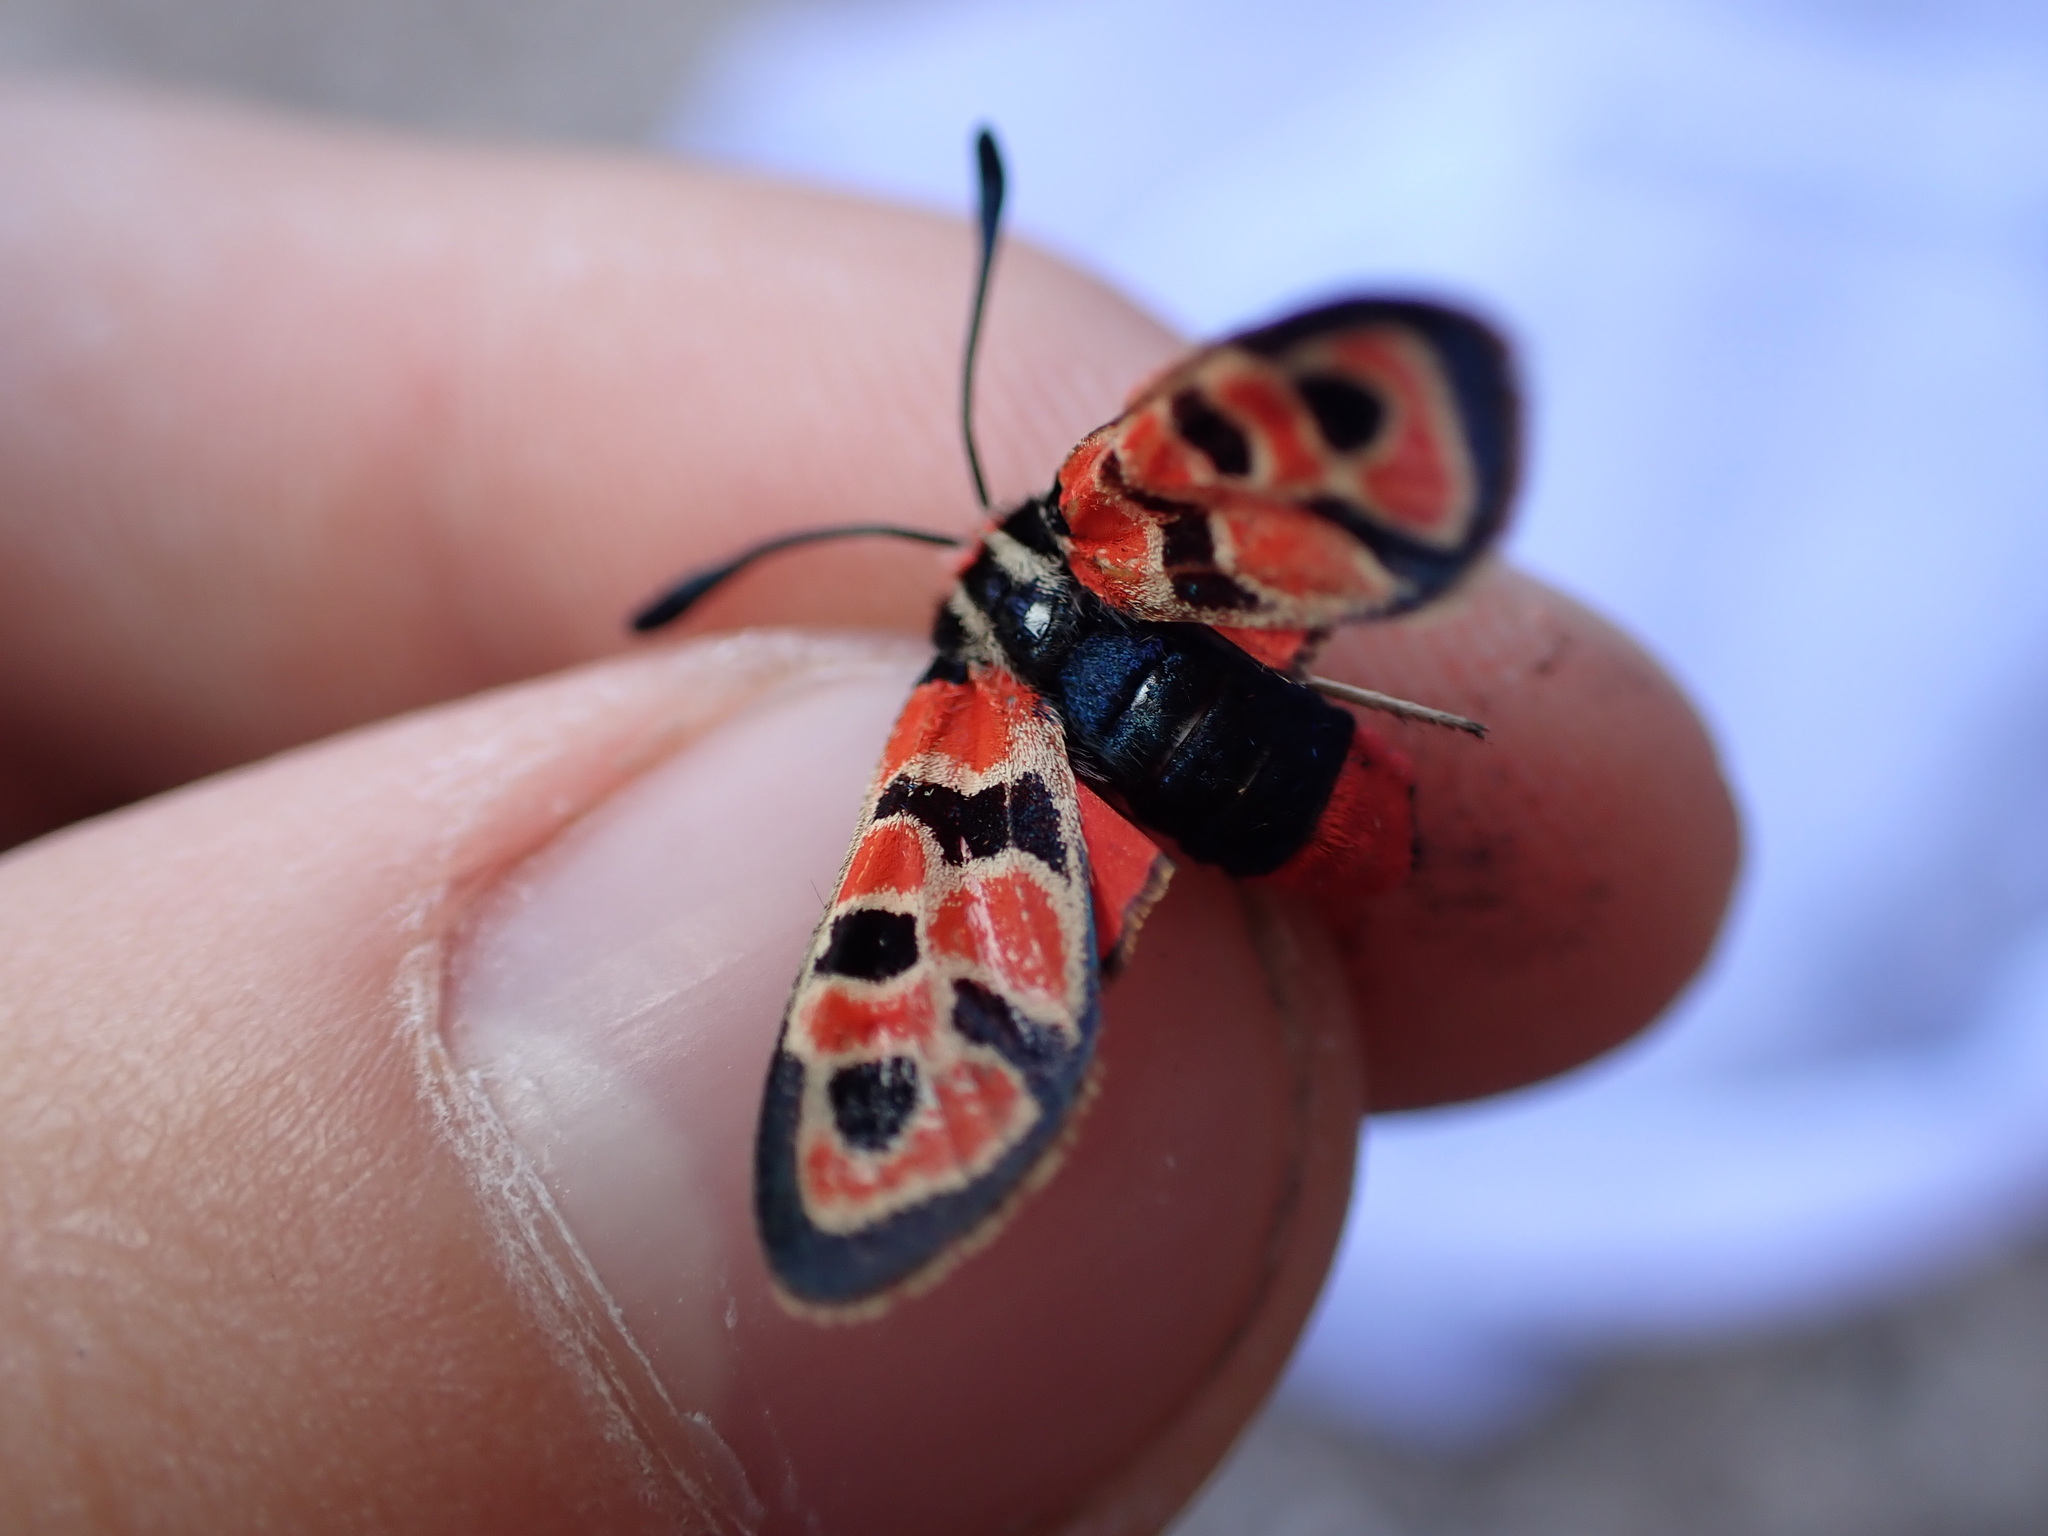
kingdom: Animalia
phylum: Arthropoda
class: Insecta
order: Lepidoptera
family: Zygaenidae
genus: Zygaena
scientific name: Zygaena fausta
